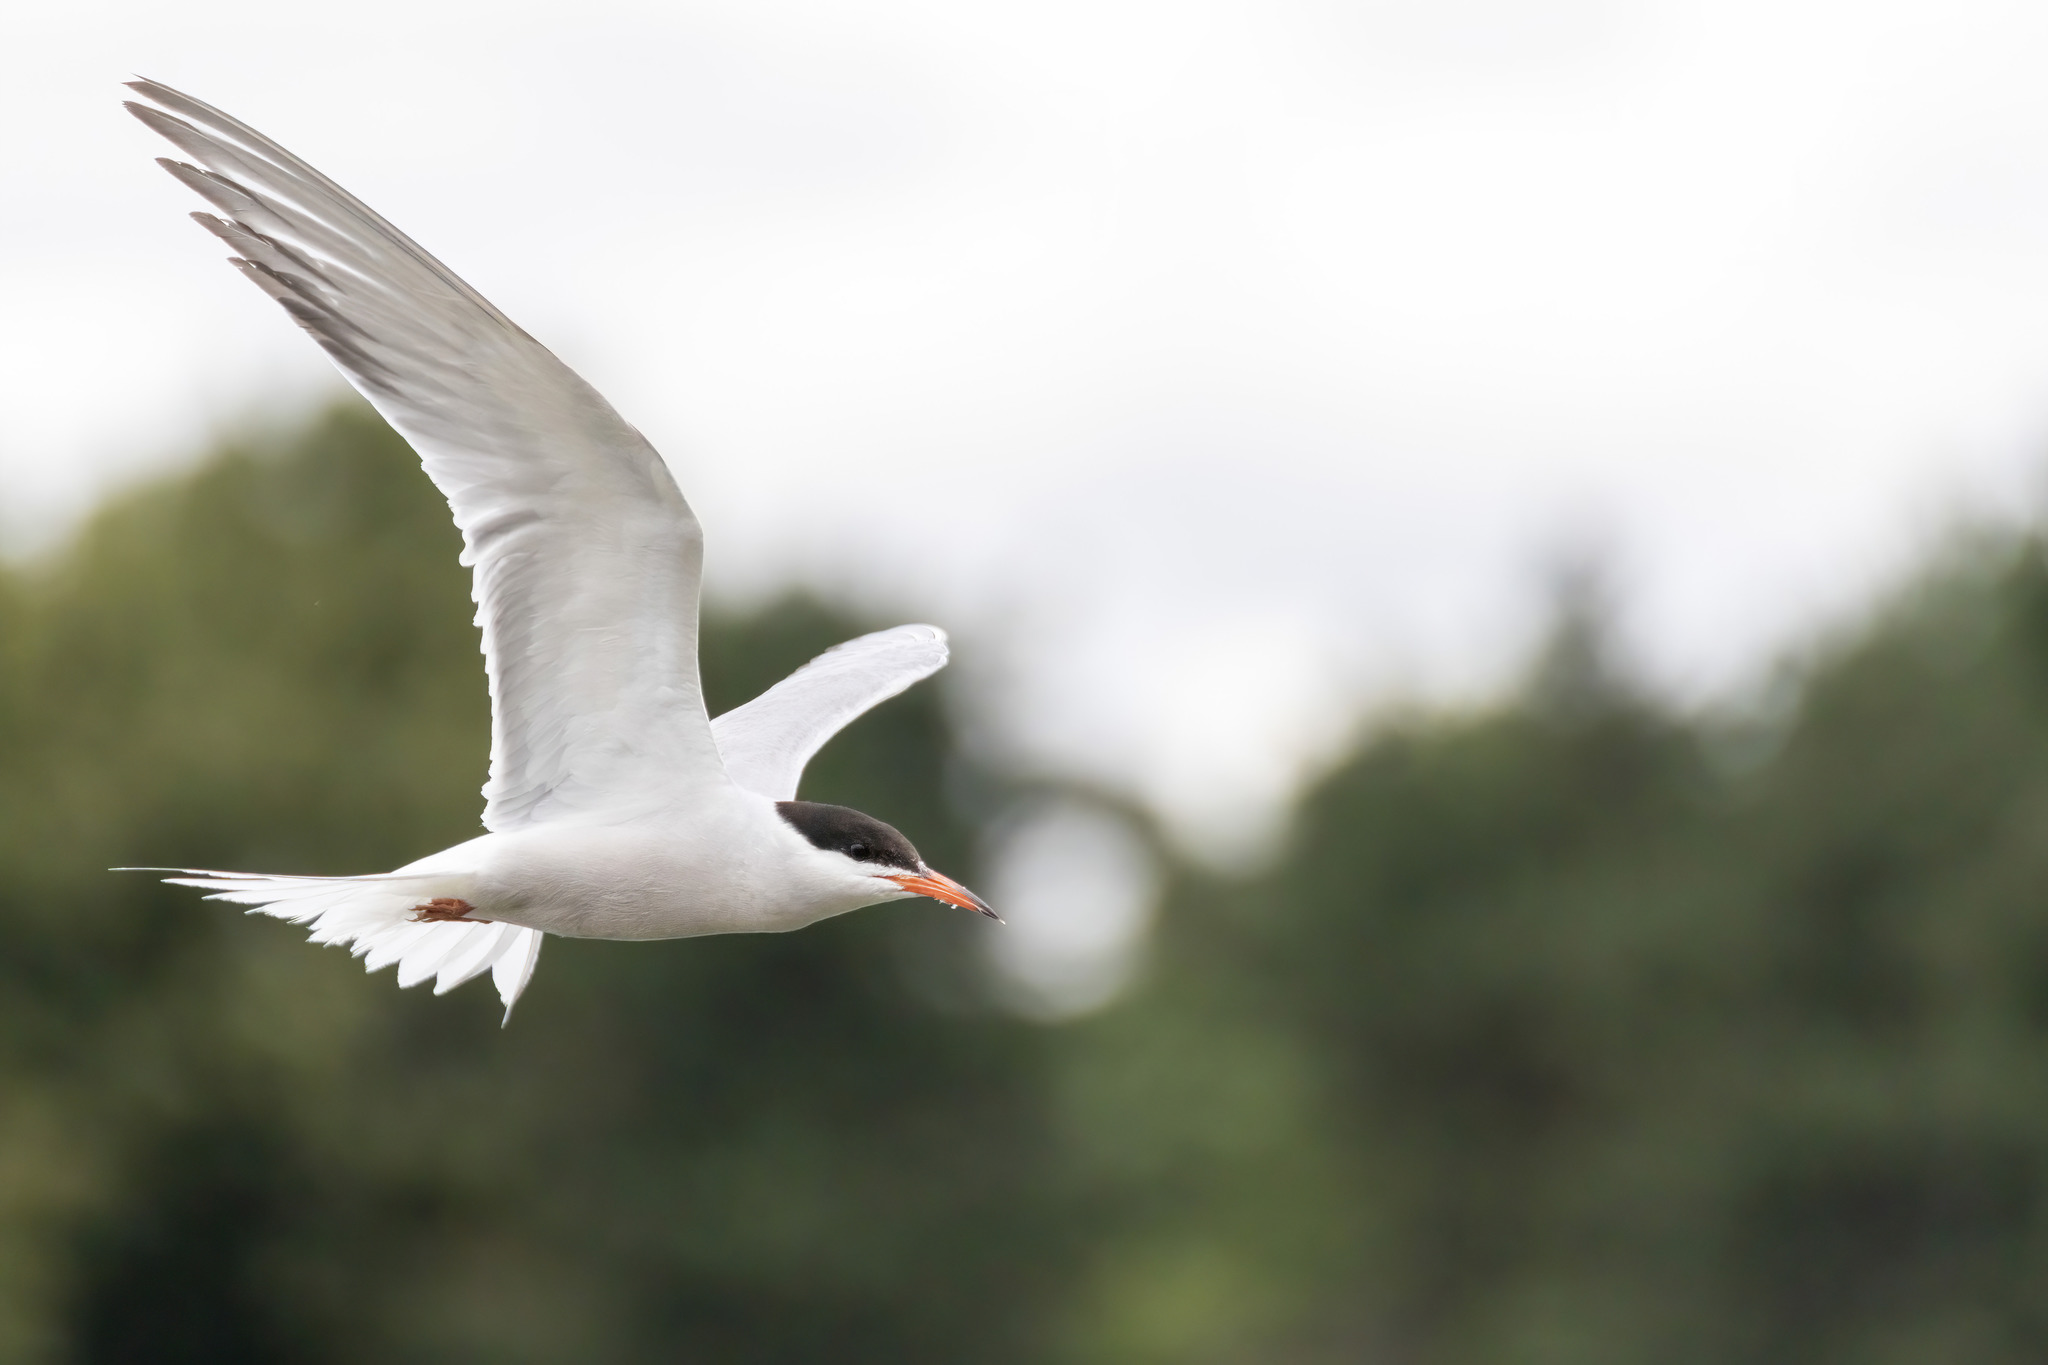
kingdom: Animalia
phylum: Chordata
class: Aves
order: Charadriiformes
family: Laridae
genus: Sterna
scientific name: Sterna hirundo
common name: Common tern
